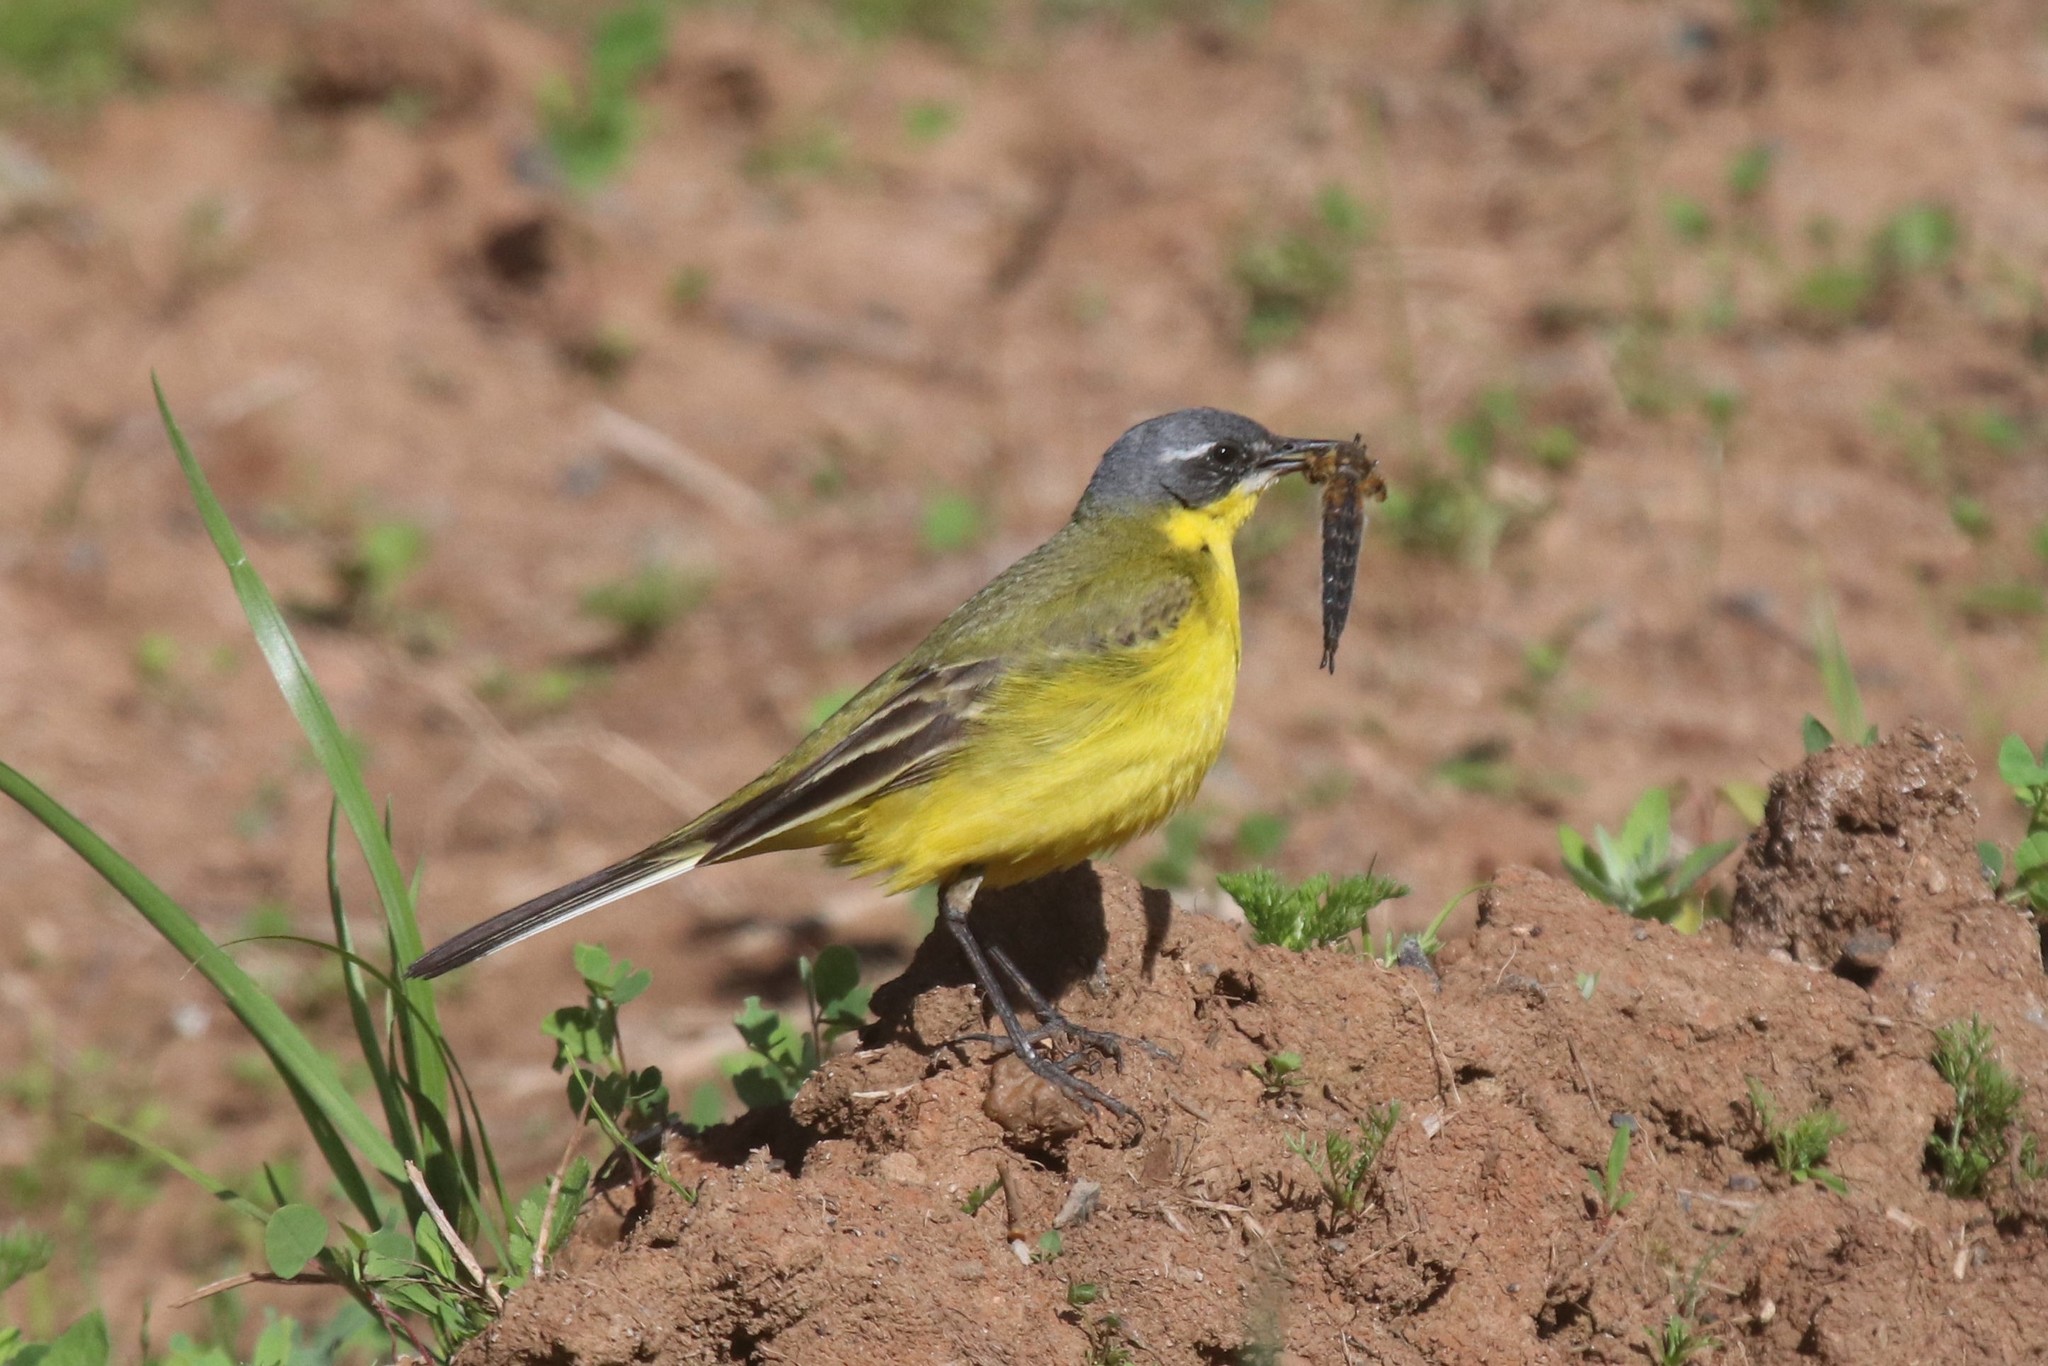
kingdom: Animalia
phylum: Chordata
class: Aves
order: Passeriformes
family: Motacillidae
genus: Motacilla
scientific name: Motacilla flava
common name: Western yellow wagtail
